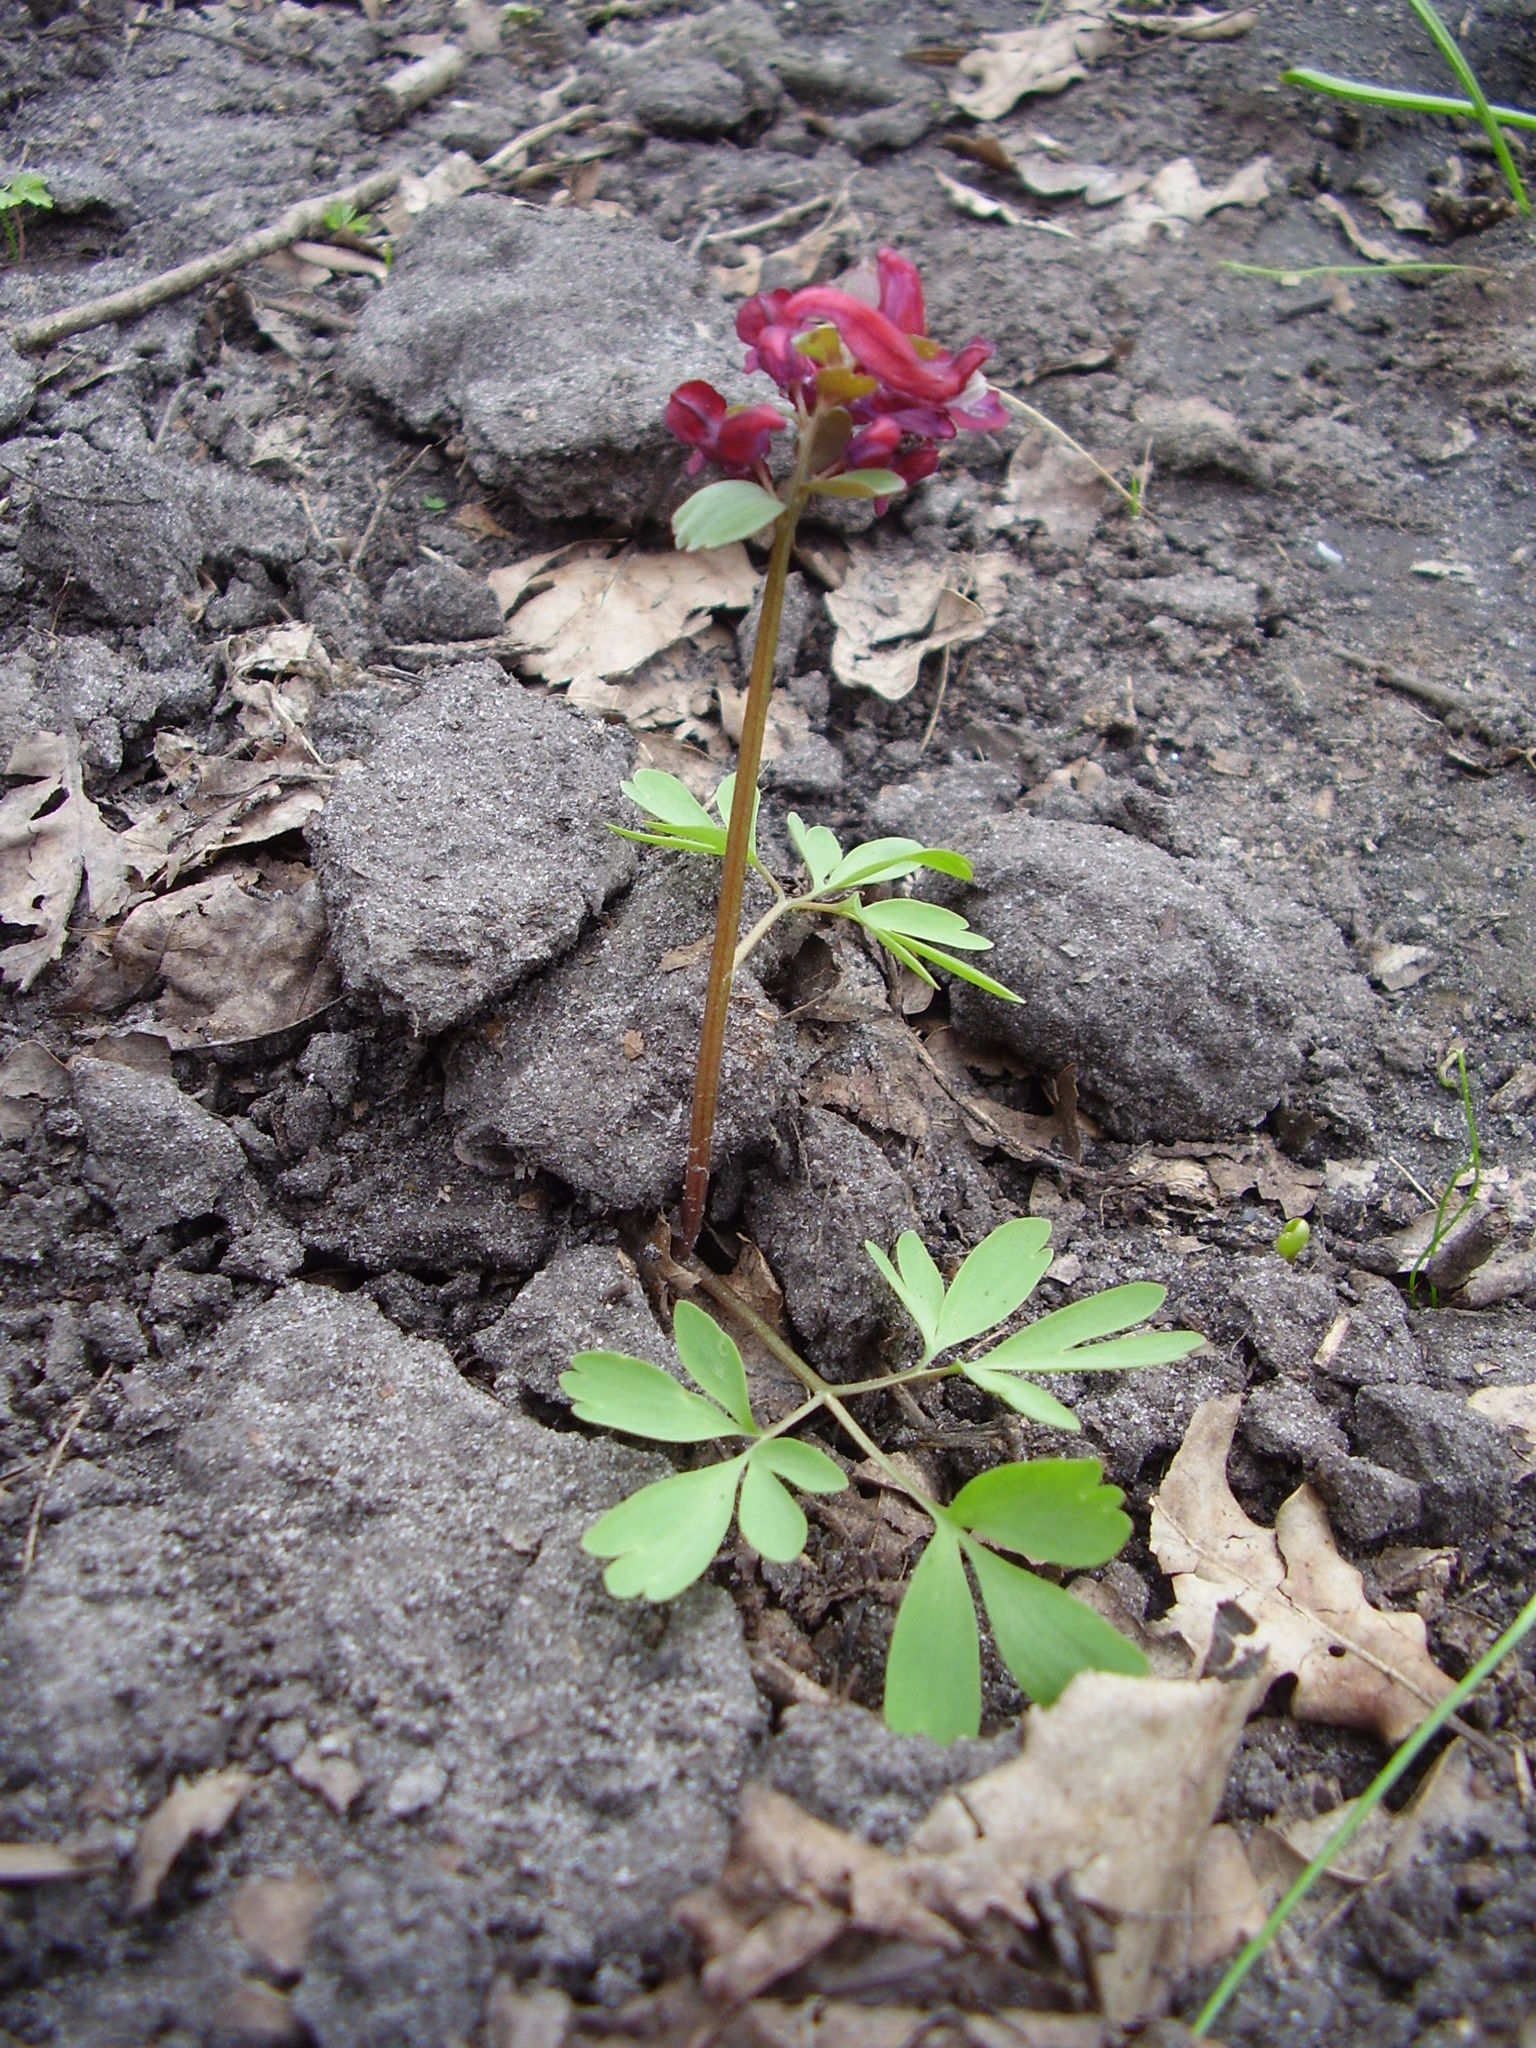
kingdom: Plantae
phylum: Tracheophyta
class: Magnoliopsida
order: Ranunculales
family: Papaveraceae
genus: Corydalis
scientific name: Corydalis solida
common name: Bird-in-a-bush
